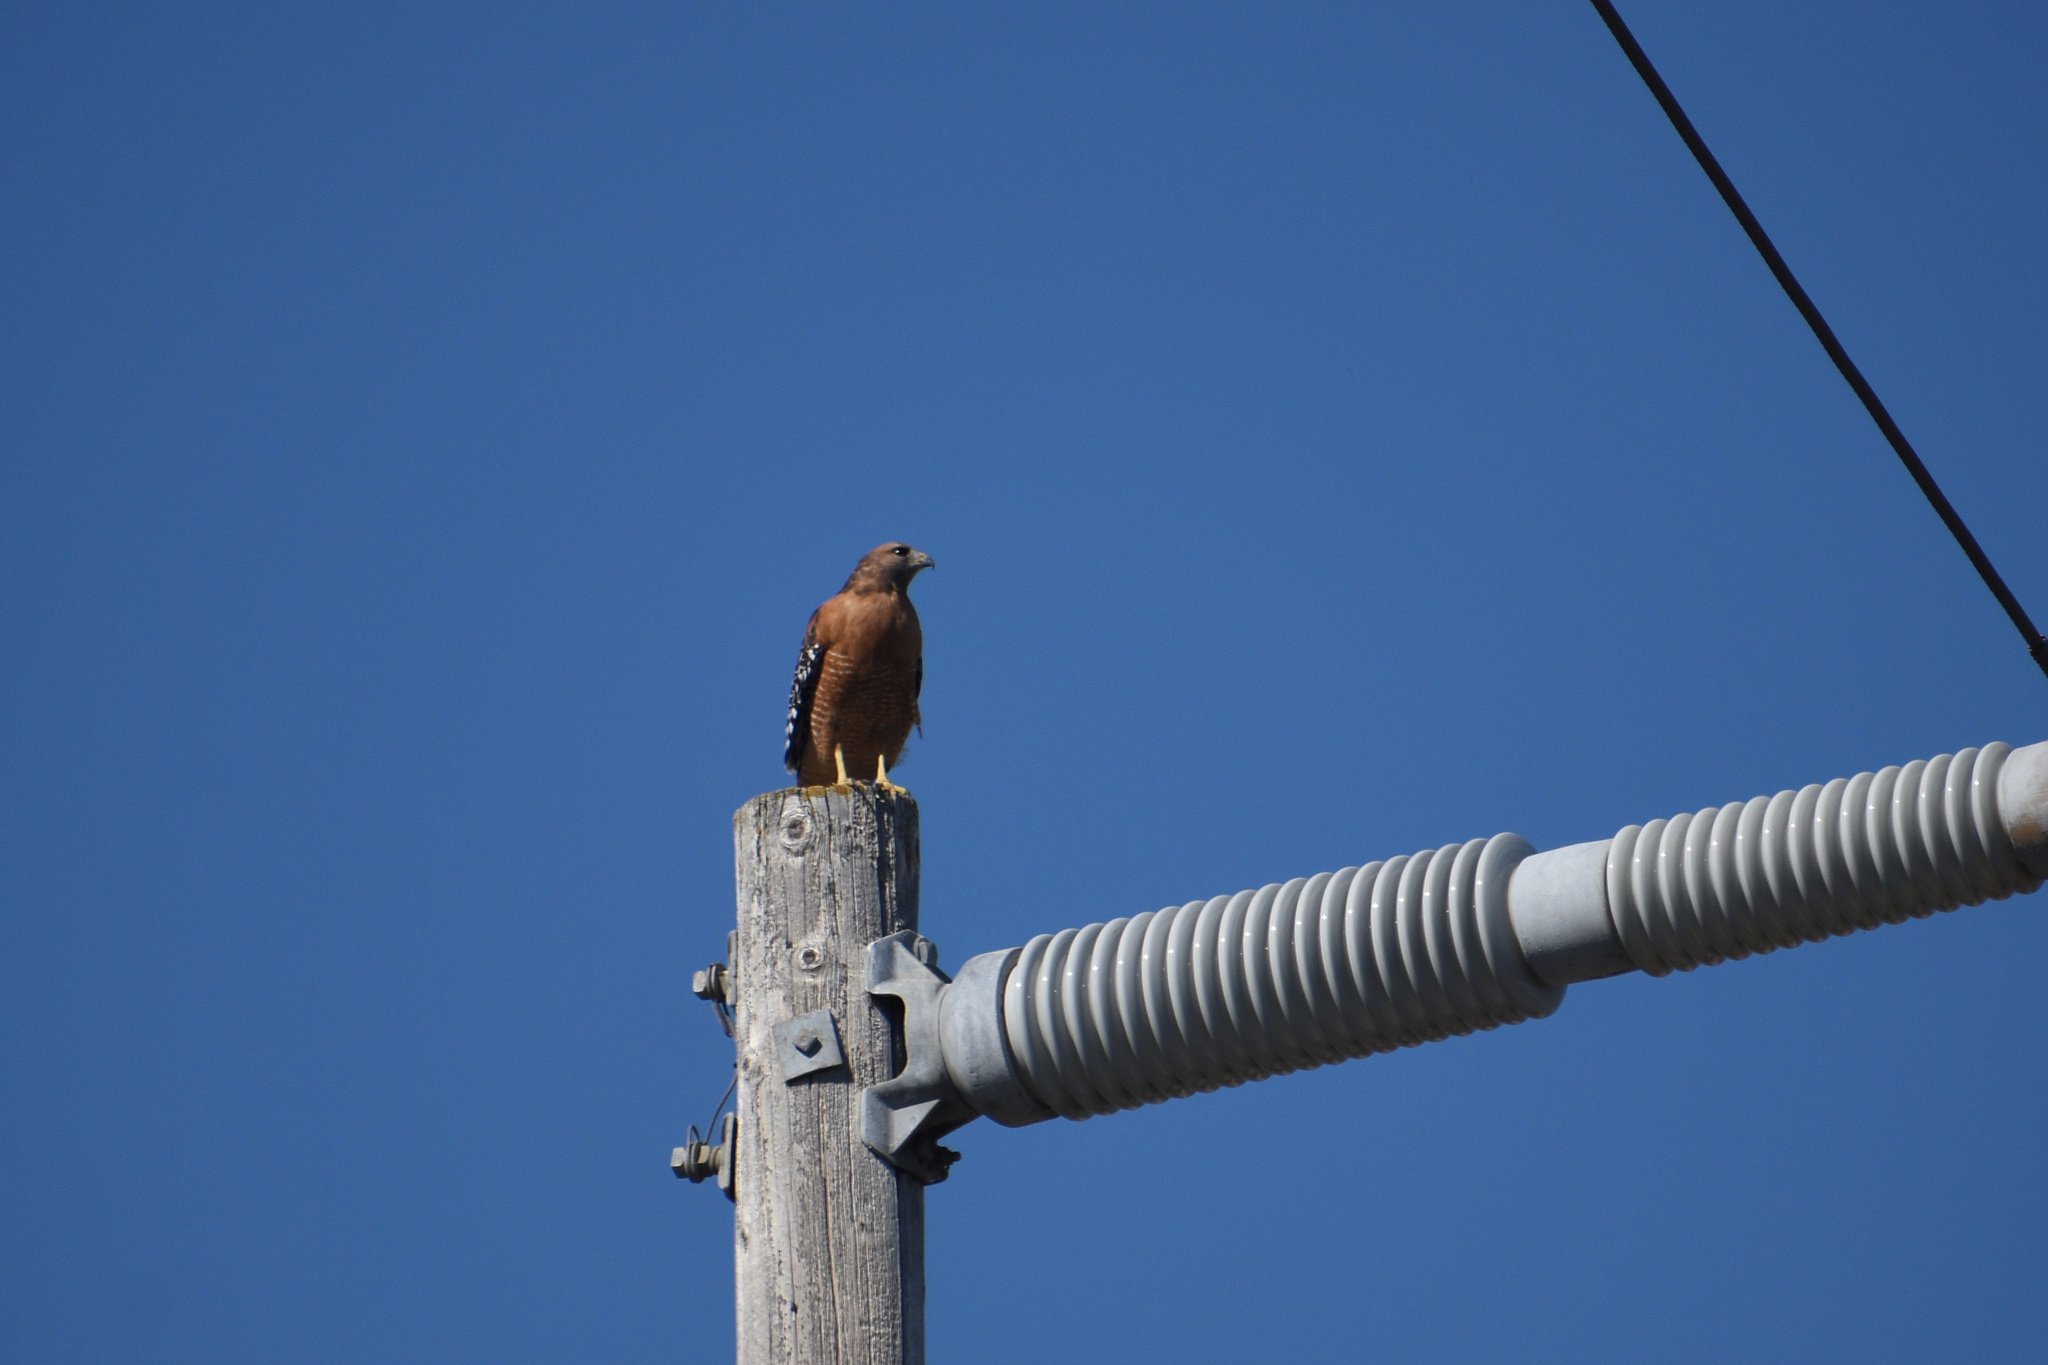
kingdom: Animalia
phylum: Chordata
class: Aves
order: Accipitriformes
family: Accipitridae
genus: Buteo
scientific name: Buteo lineatus
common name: Red-shouldered hawk
